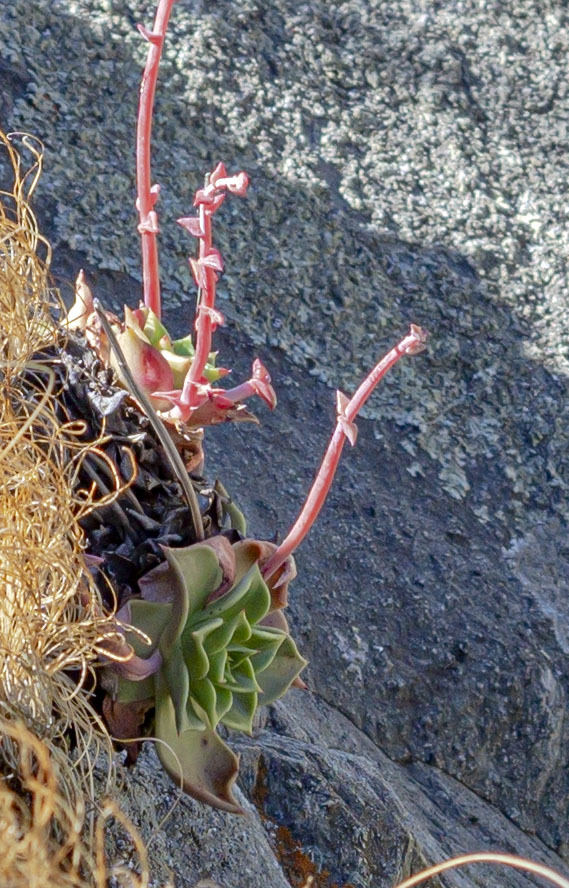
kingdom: Plantae
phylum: Tracheophyta
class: Magnoliopsida
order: Saxifragales
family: Crassulaceae
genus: Dudleya
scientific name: Dudleya rigida
